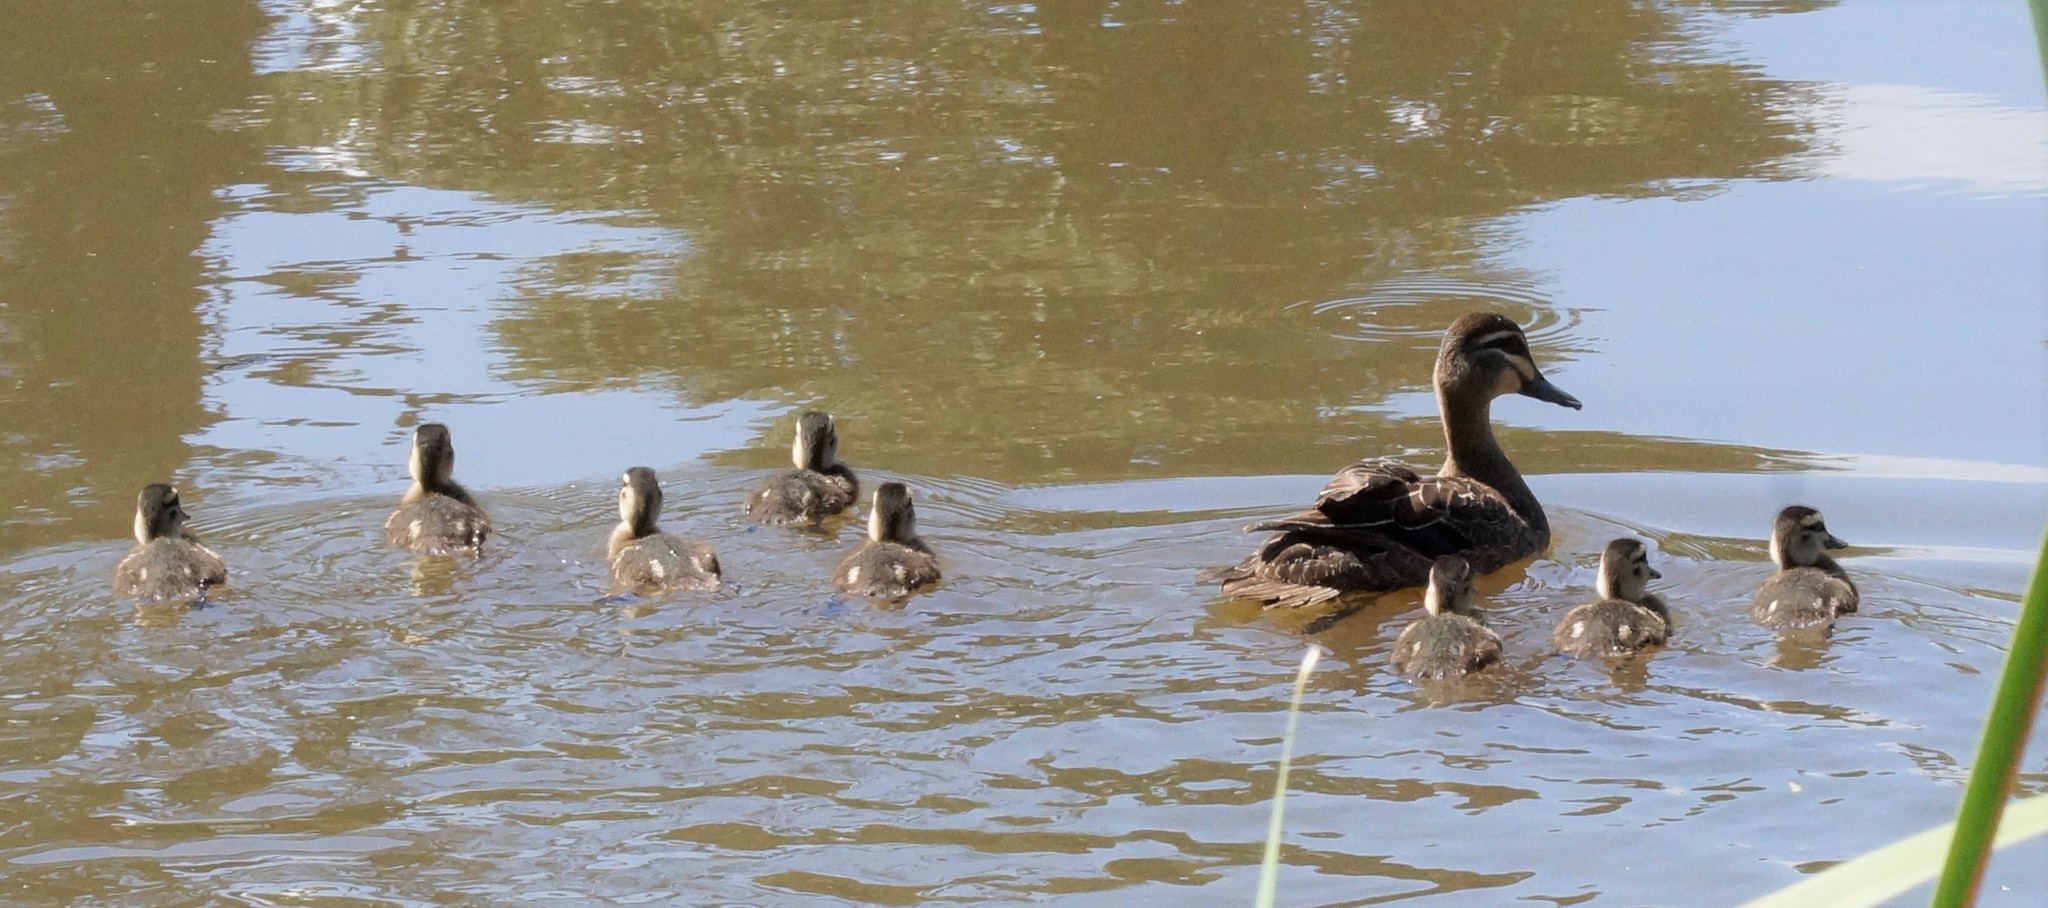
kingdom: Animalia
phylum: Chordata
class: Aves
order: Anseriformes
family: Anatidae
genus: Anas
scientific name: Anas superciliosa
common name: Pacific black duck
